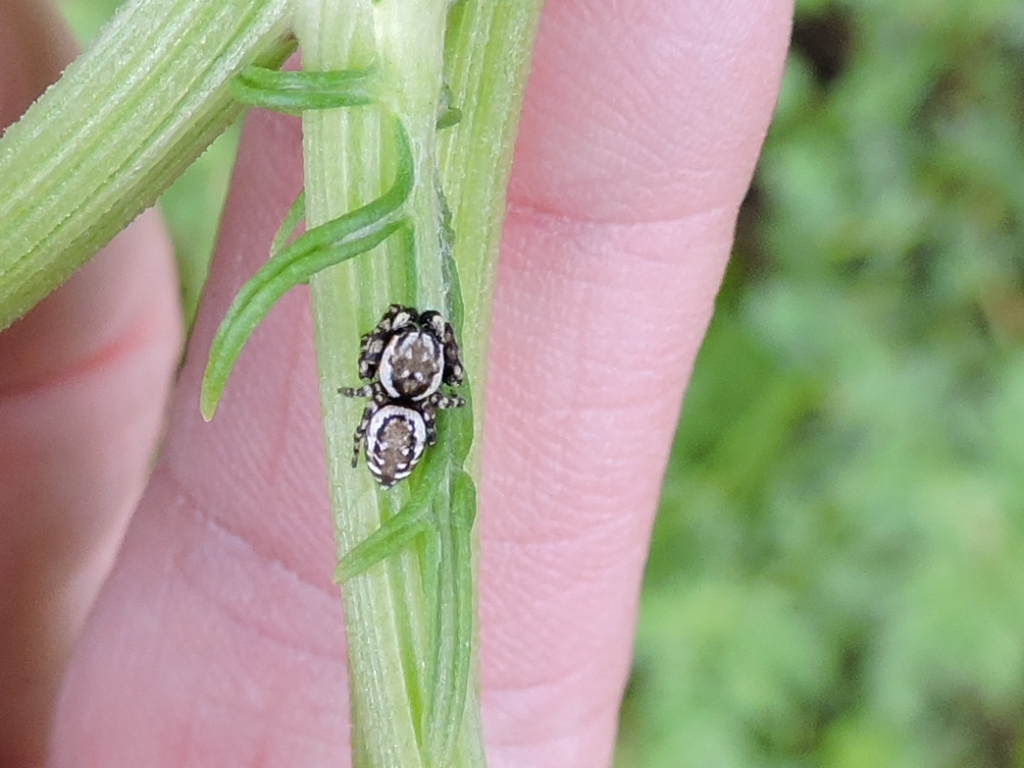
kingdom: Animalia
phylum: Arthropoda
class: Arachnida
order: Araneae
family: Salticidae
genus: Pelegrina
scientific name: Pelegrina galathea
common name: Jumping spiders
